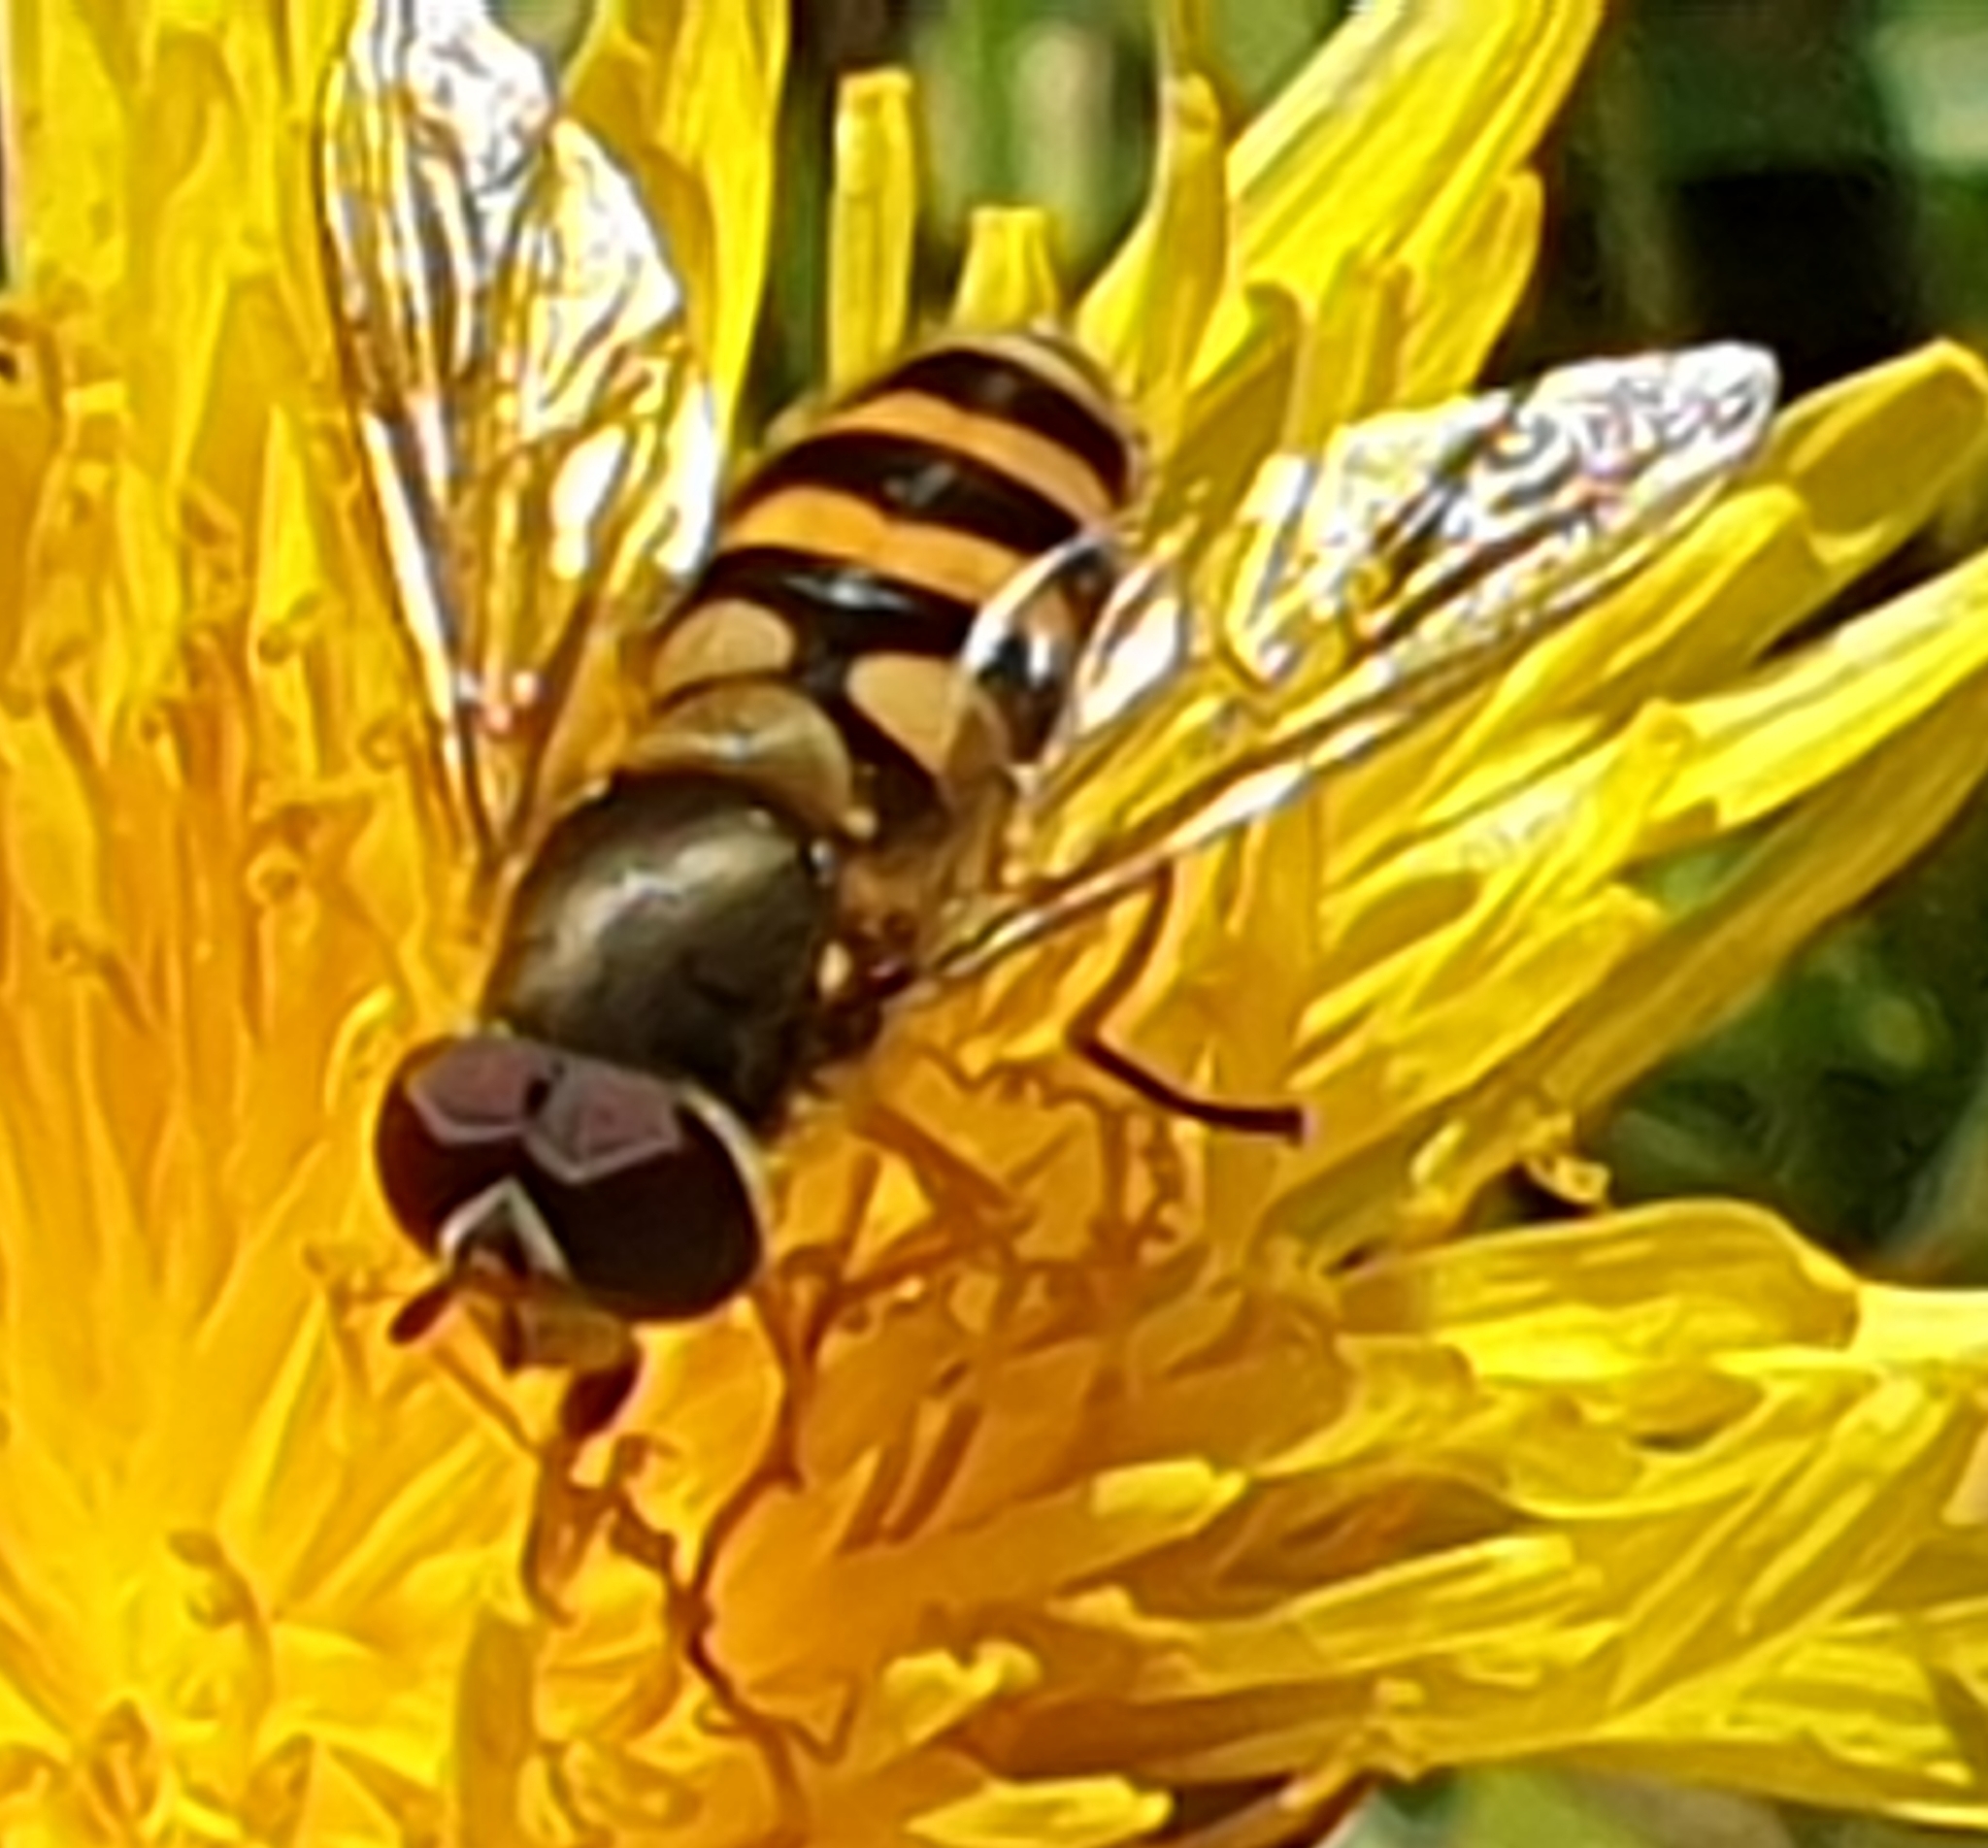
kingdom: Animalia
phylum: Arthropoda
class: Insecta
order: Diptera
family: Syrphidae
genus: Syrphus
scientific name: Syrphus
